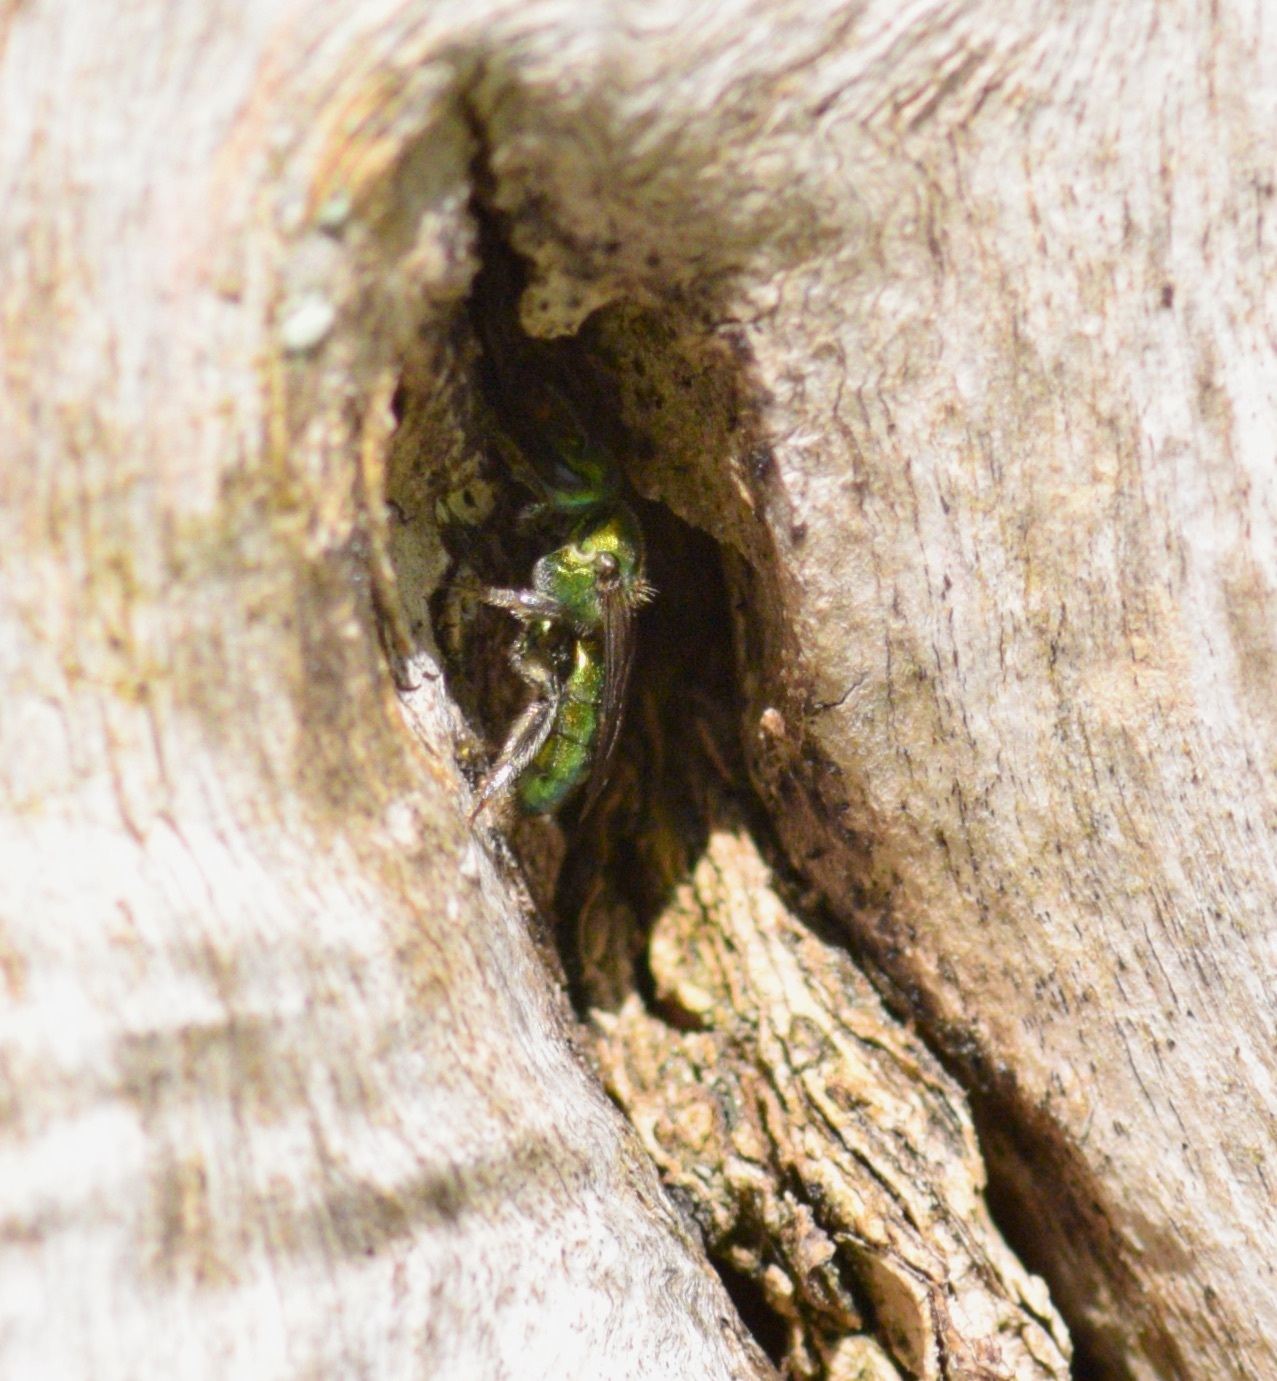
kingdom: Animalia
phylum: Arthropoda
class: Insecta
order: Hymenoptera
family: Halictidae
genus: Augochlora
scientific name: Augochlora pura
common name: Pure green sweat bee
